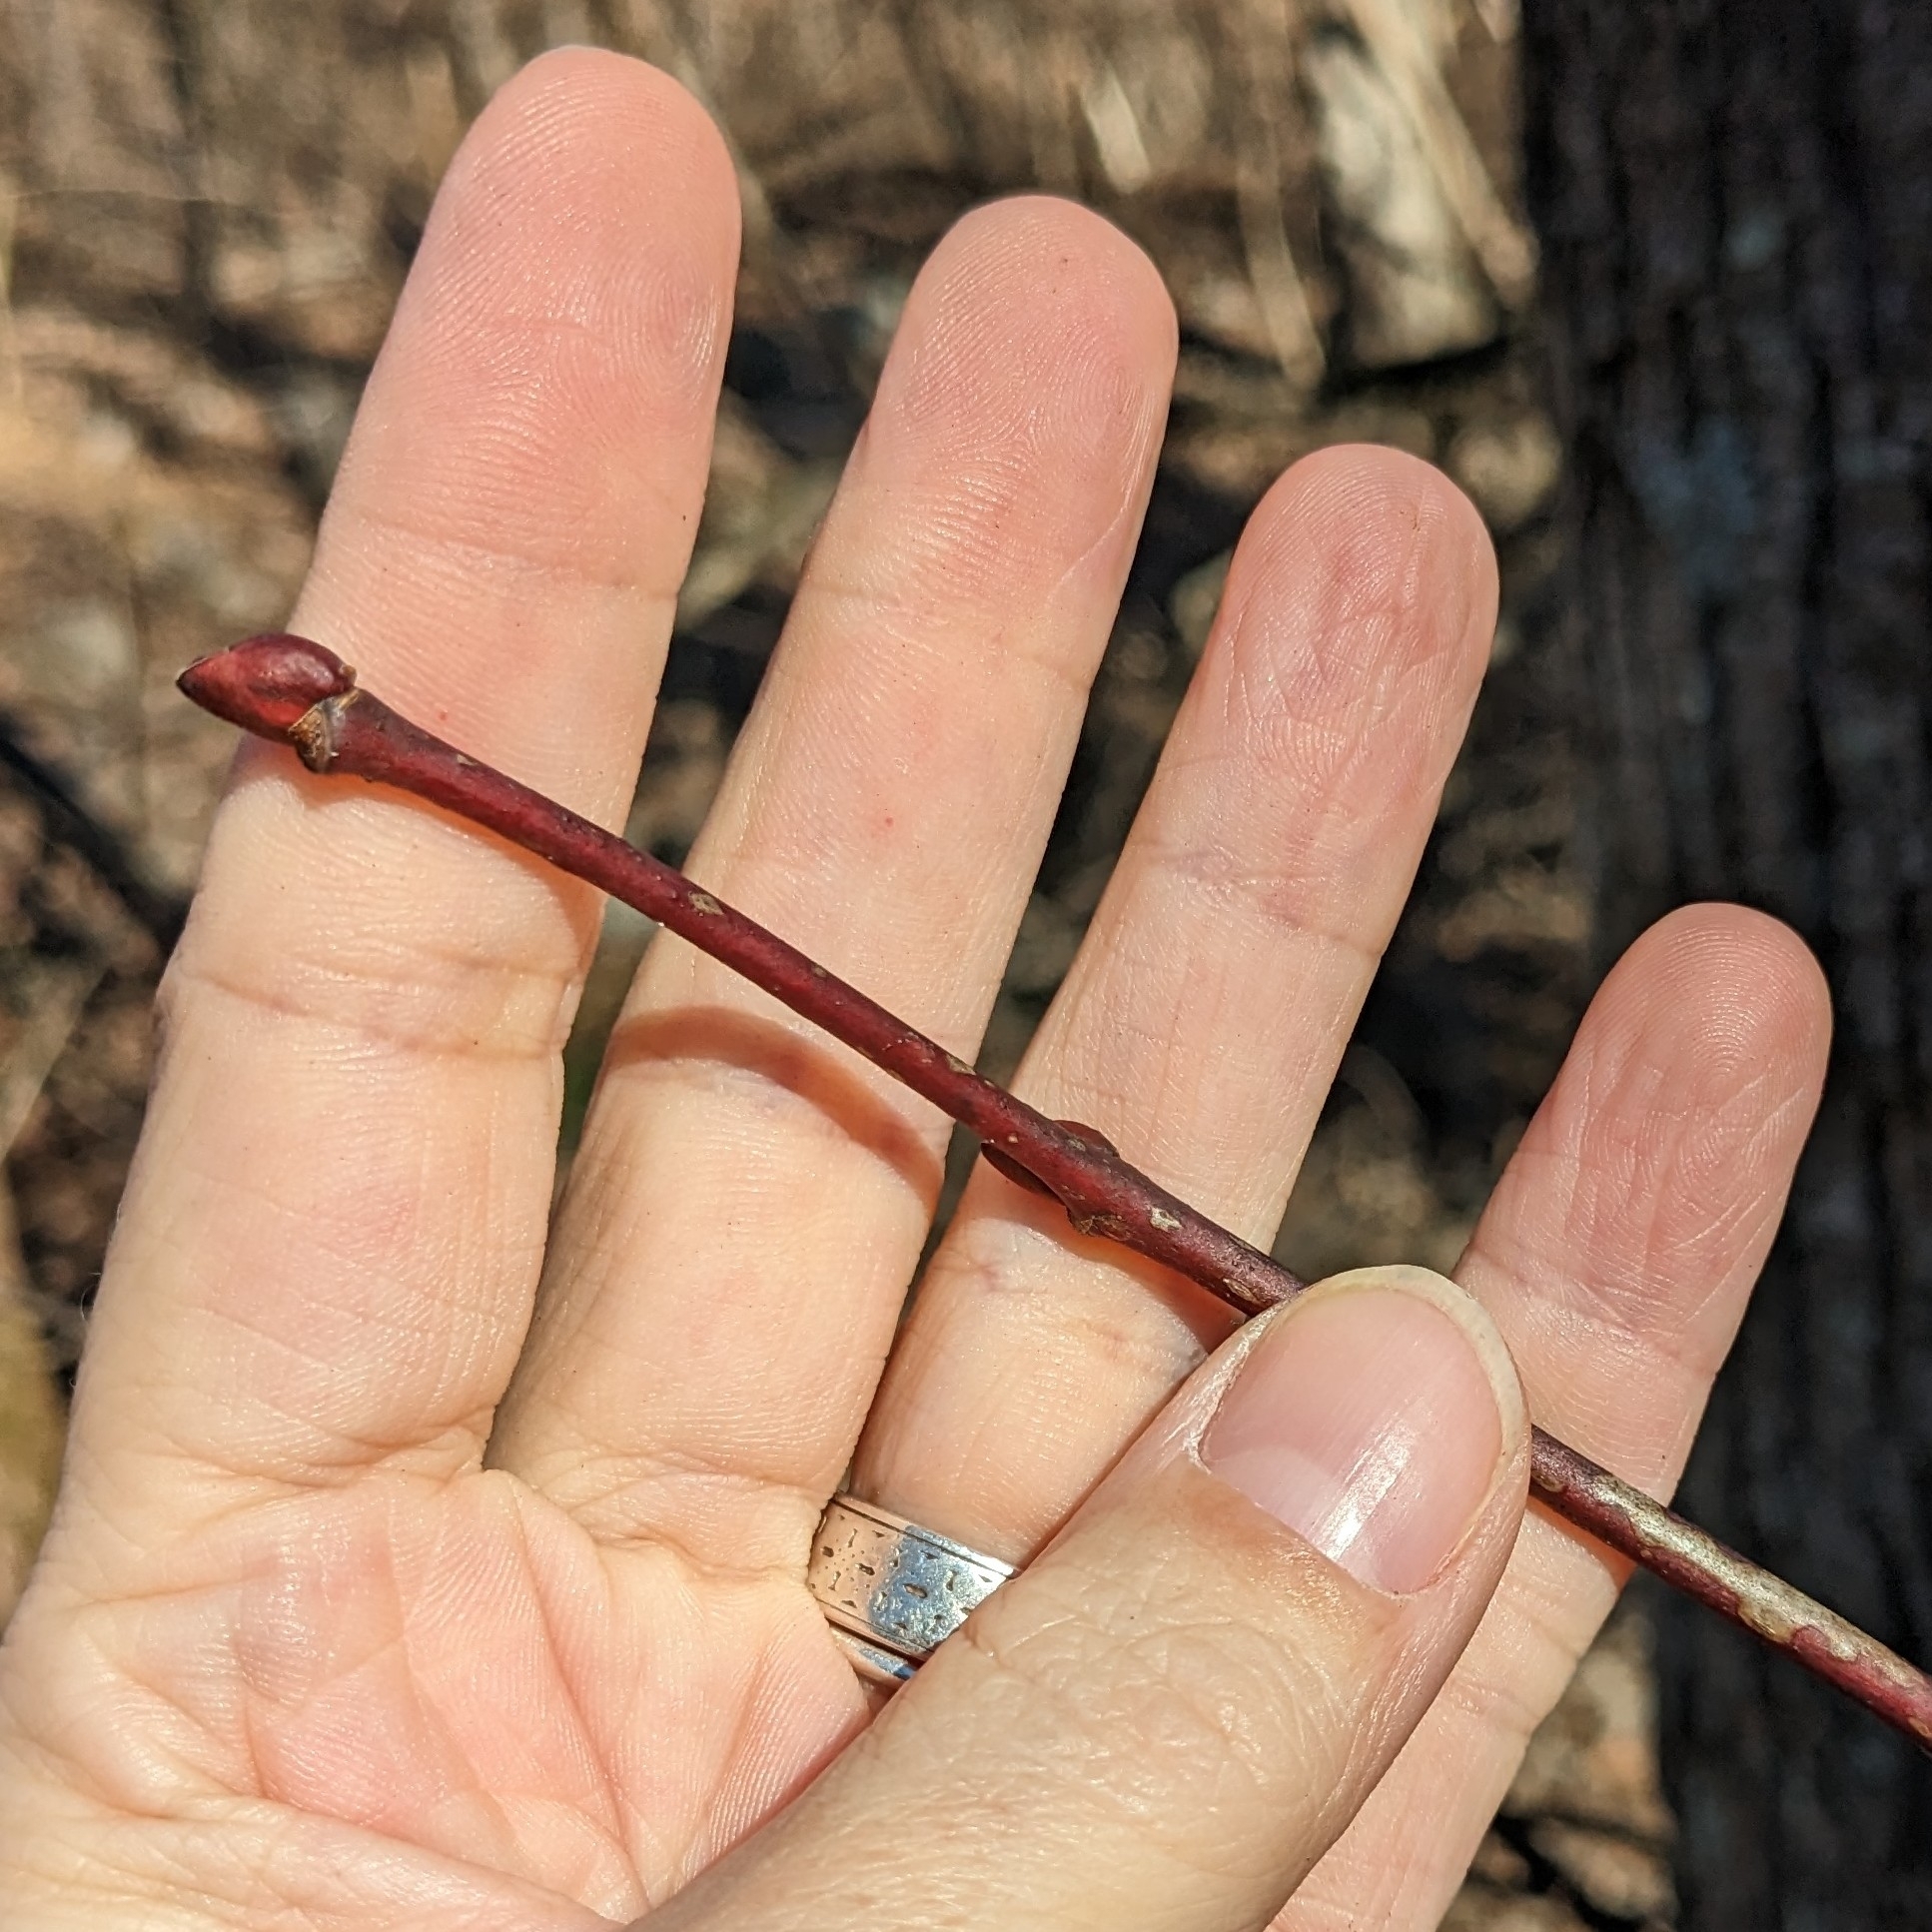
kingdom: Plantae
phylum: Tracheophyta
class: Magnoliopsida
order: Malvales
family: Malvaceae
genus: Tilia
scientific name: Tilia americana
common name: Basswood
